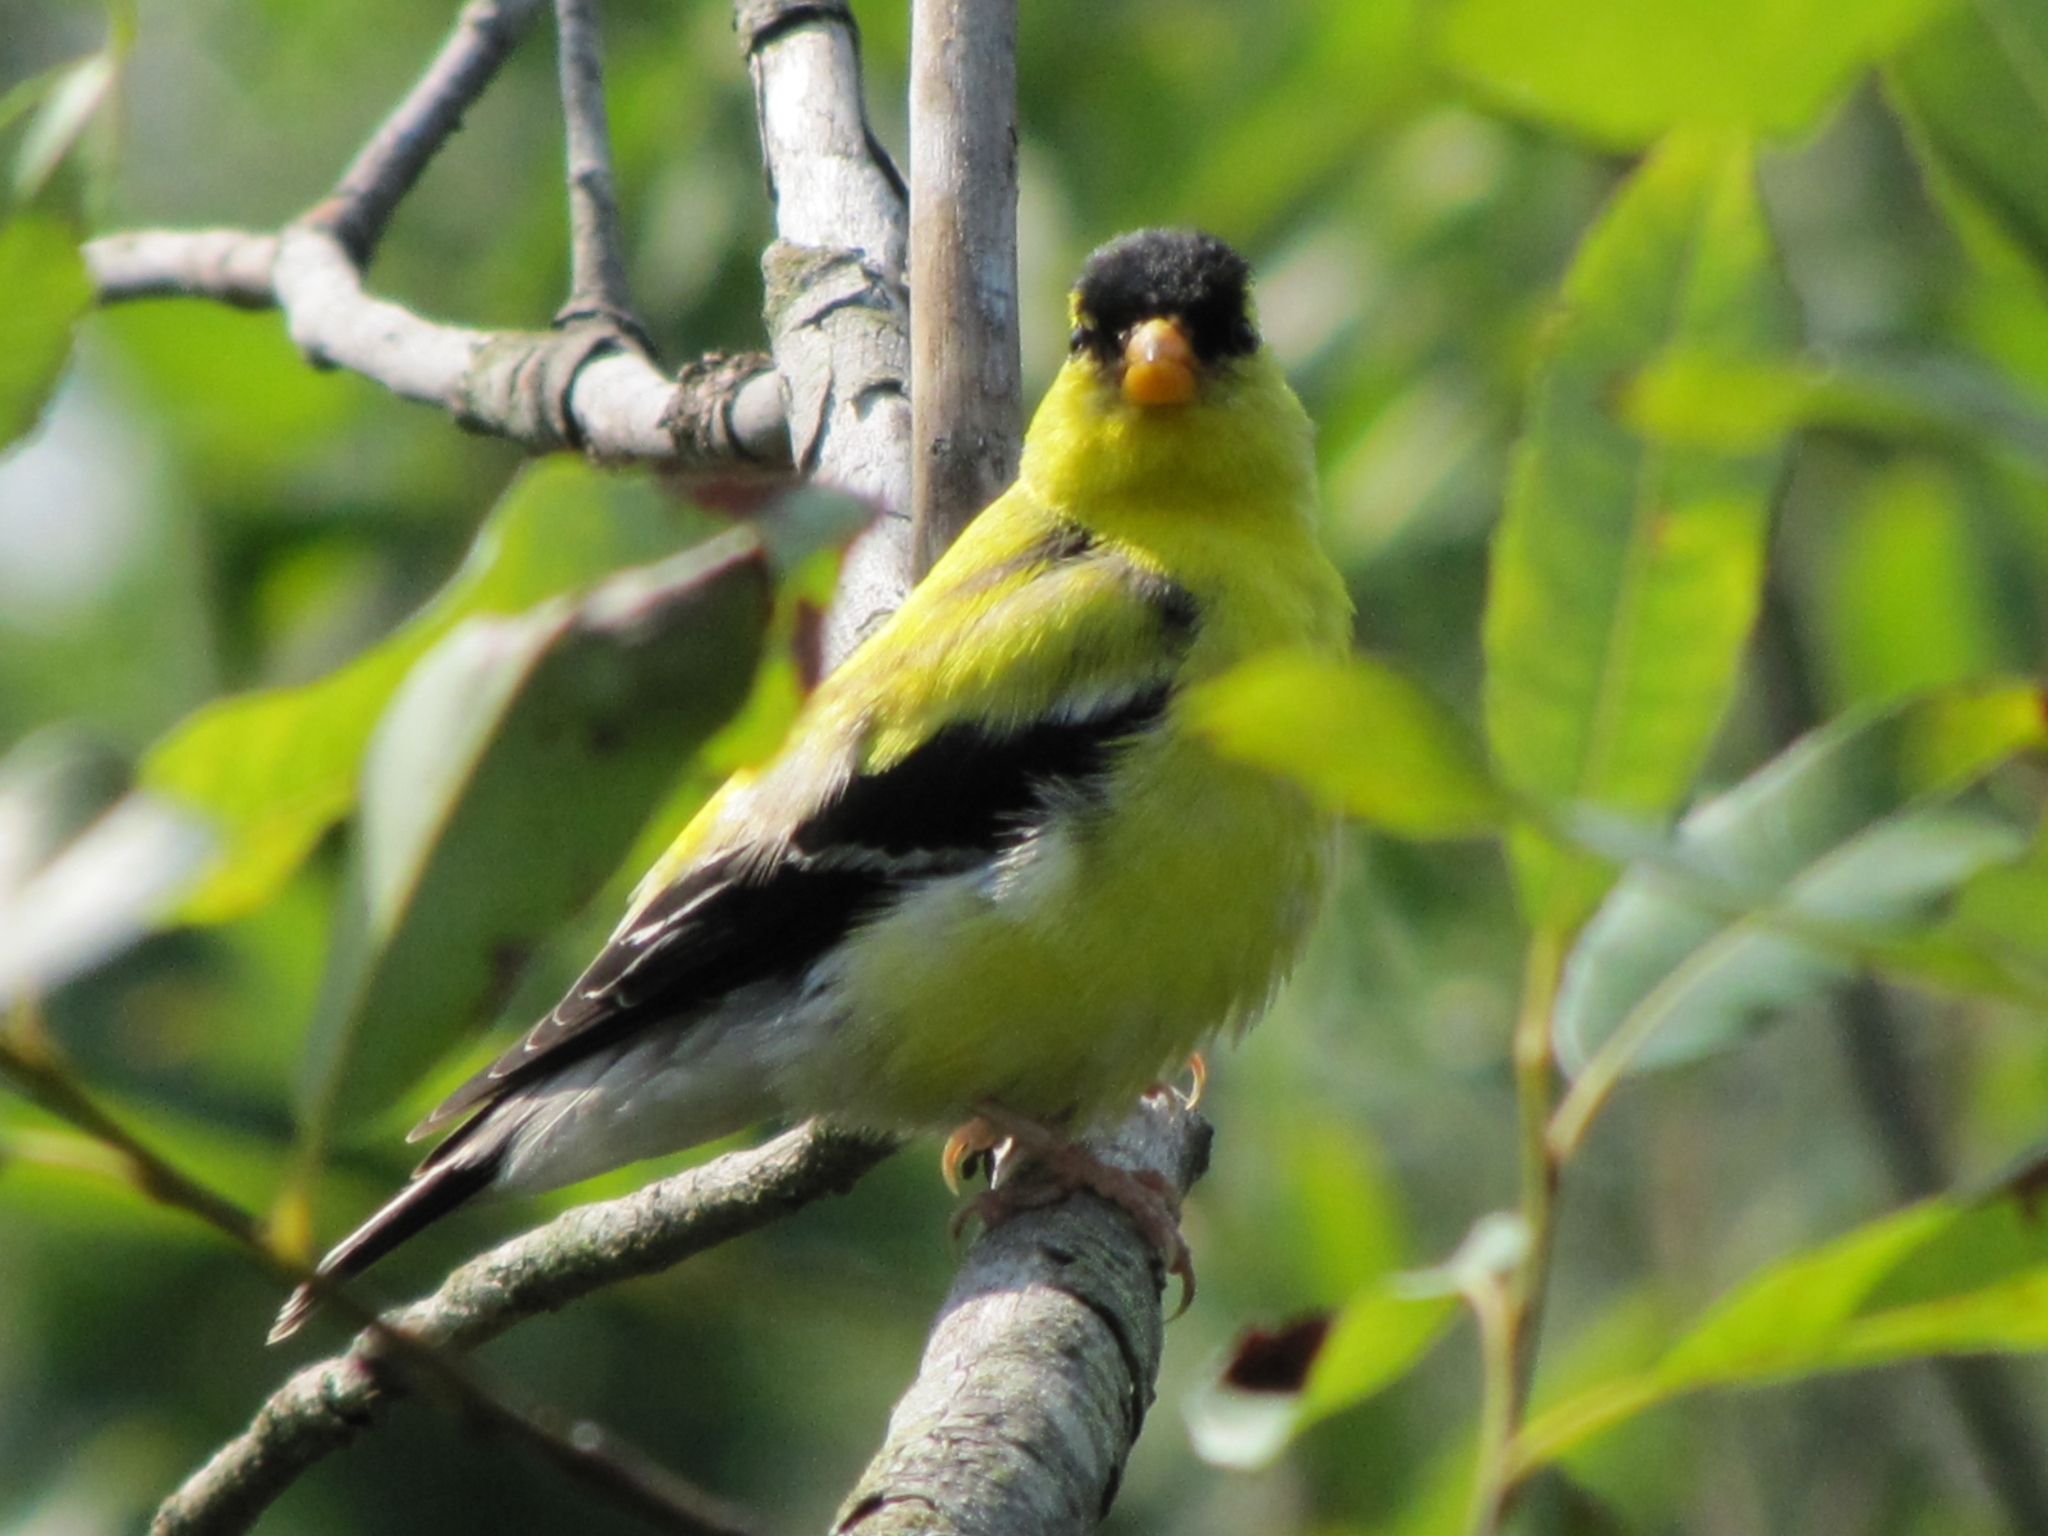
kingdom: Animalia
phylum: Chordata
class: Aves
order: Passeriformes
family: Fringillidae
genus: Spinus
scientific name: Spinus tristis
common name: American goldfinch
